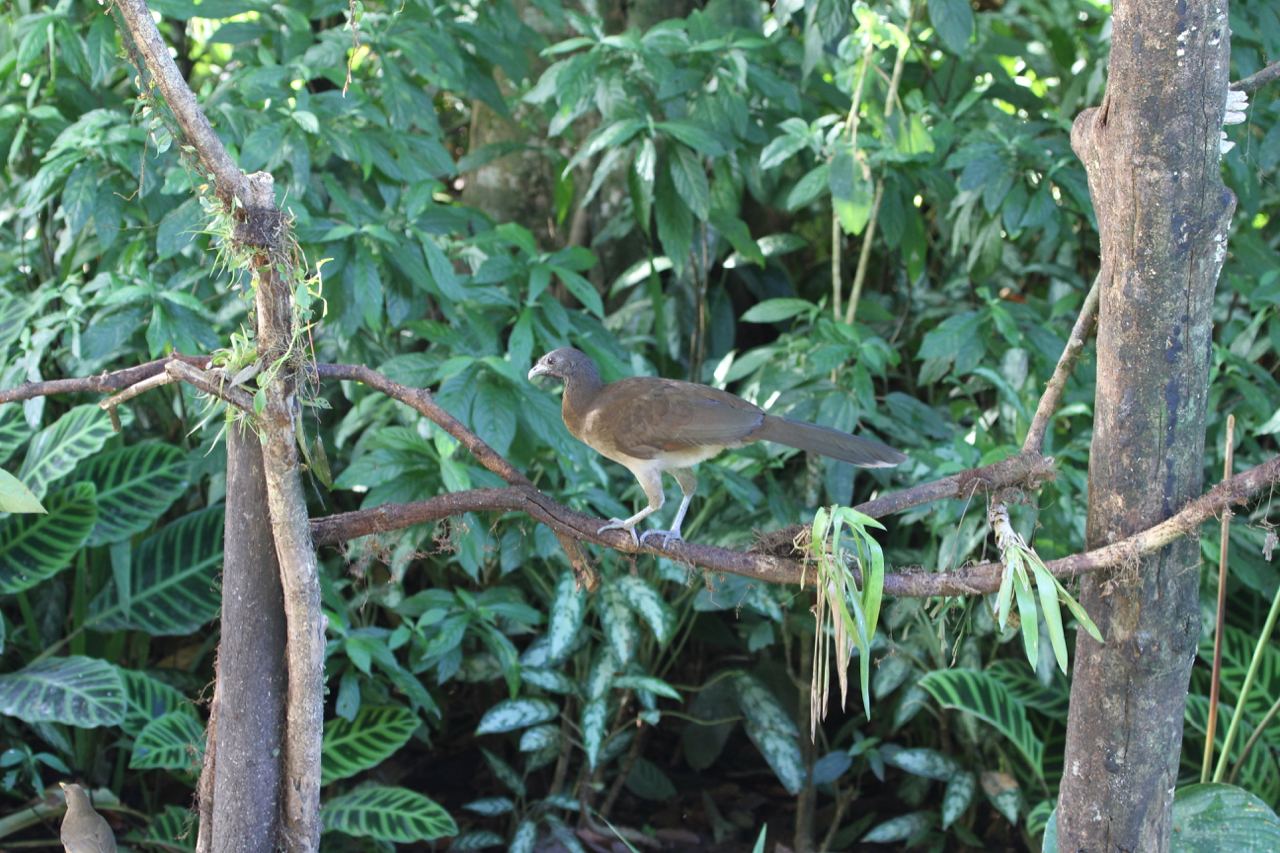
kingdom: Animalia
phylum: Chordata
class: Aves
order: Galliformes
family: Cracidae
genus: Ortalis
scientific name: Ortalis cinereiceps
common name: Grey-headed chachalaca
